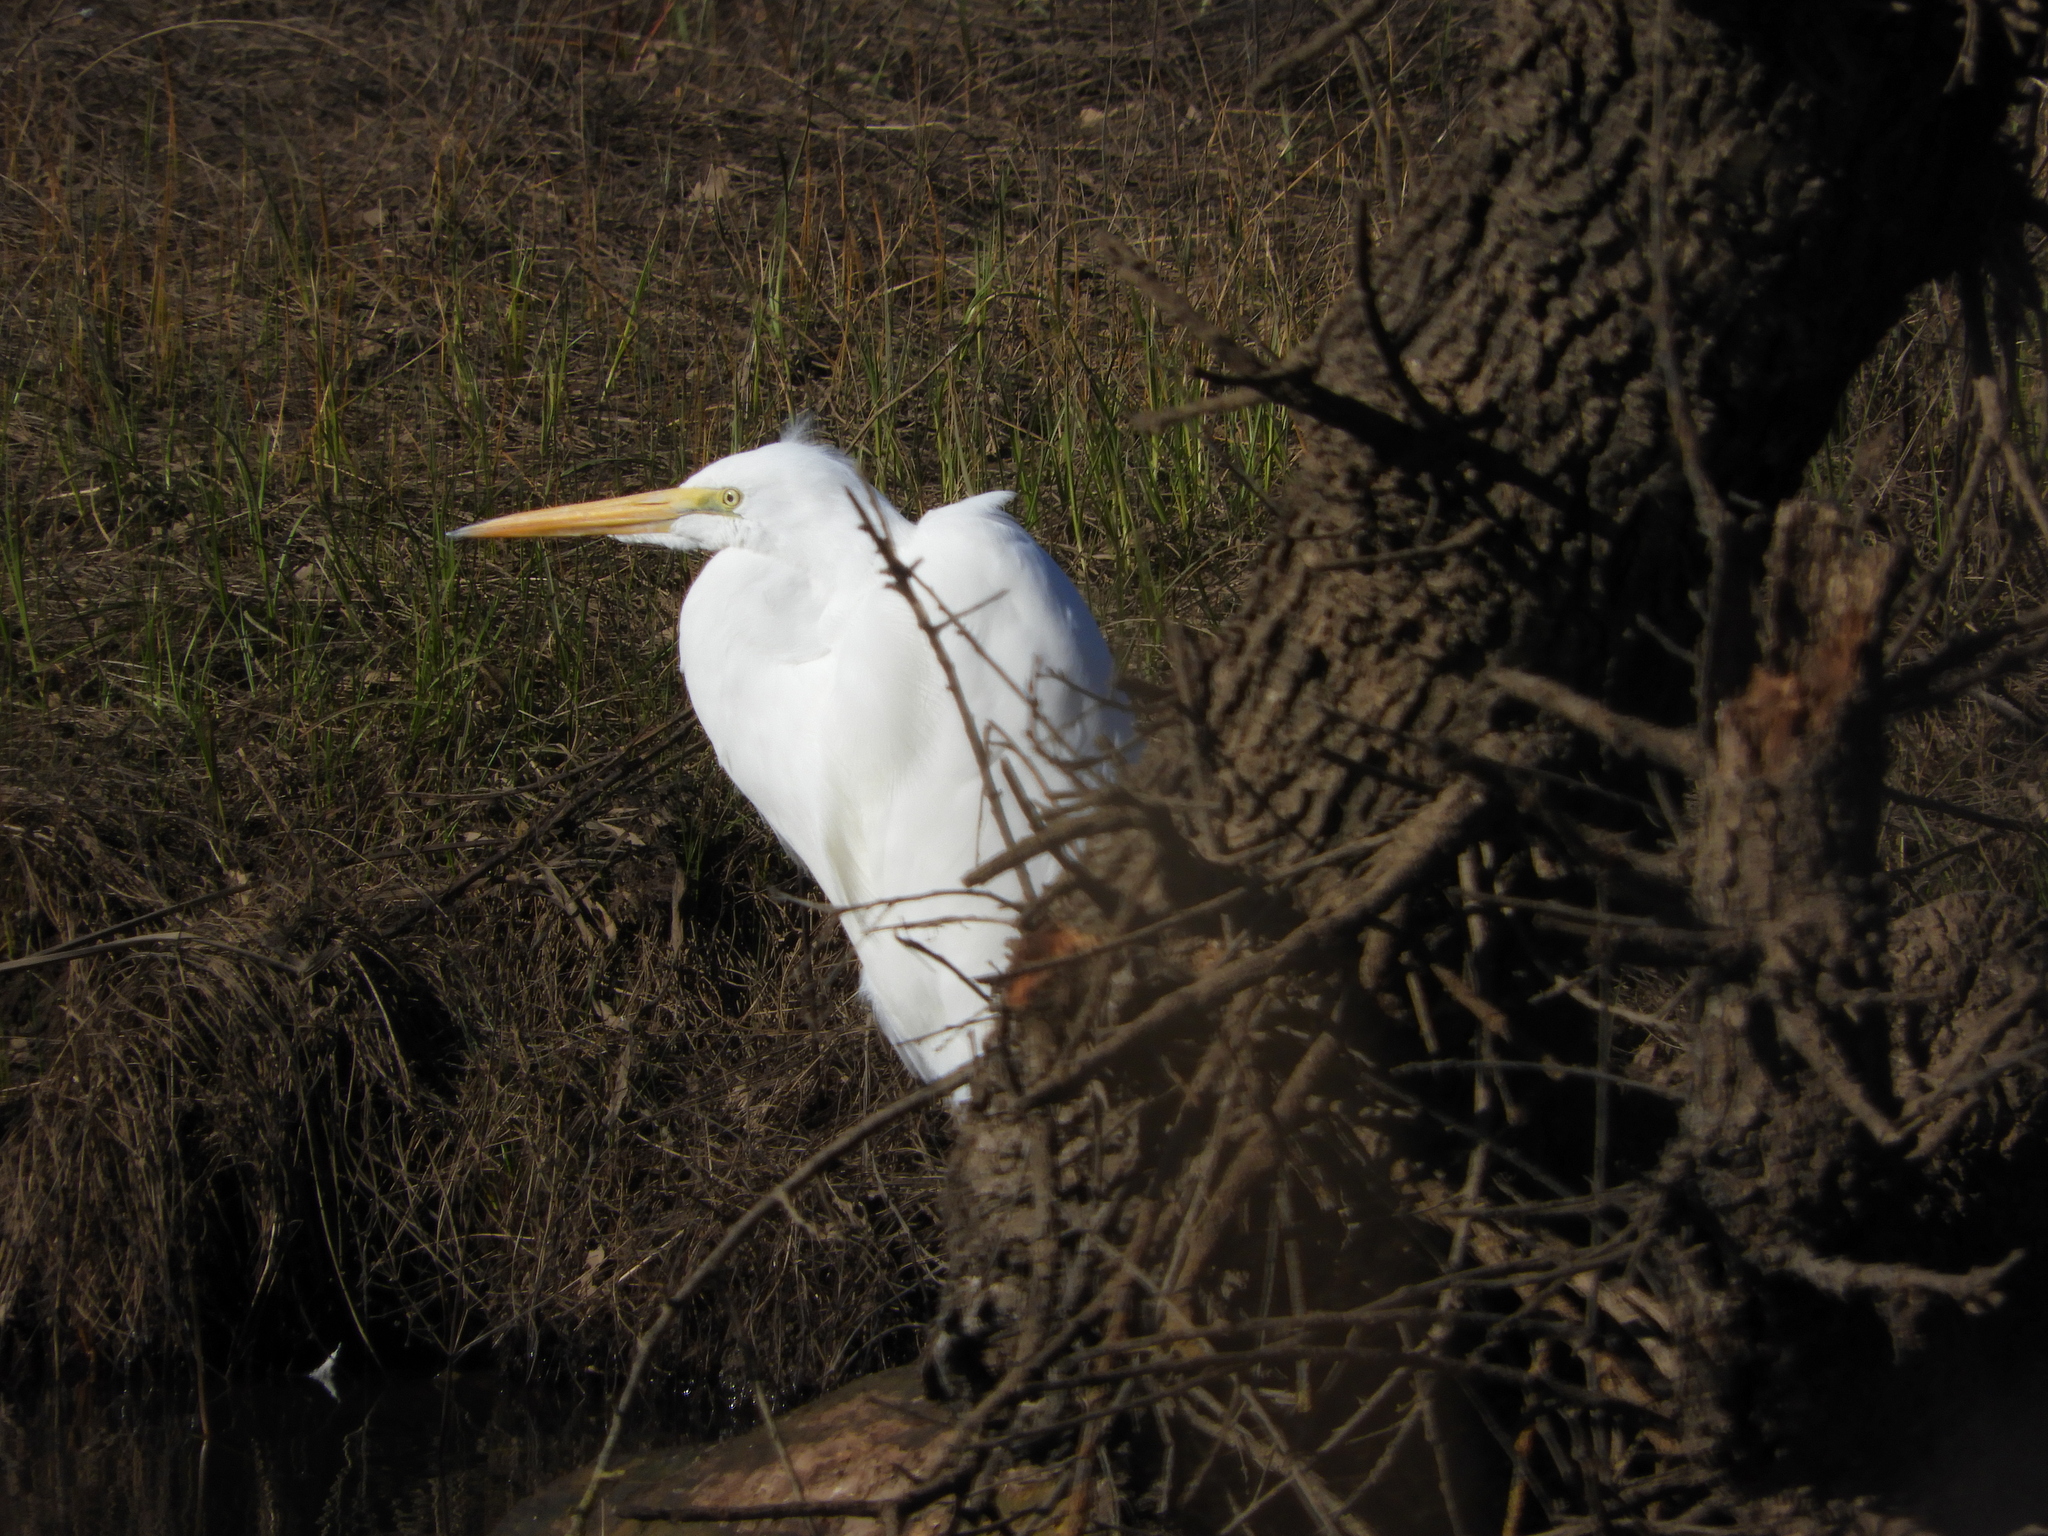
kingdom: Animalia
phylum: Chordata
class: Aves
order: Pelecaniformes
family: Ardeidae
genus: Ardea
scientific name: Ardea alba
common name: Great egret
